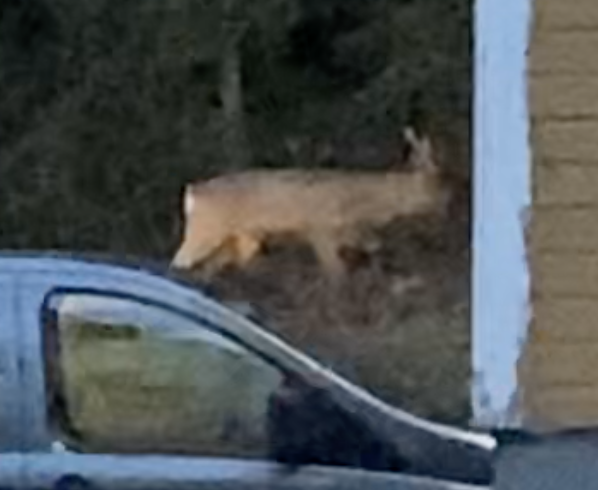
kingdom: Animalia
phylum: Chordata
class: Mammalia
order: Artiodactyla
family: Cervidae
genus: Capreolus
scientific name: Capreolus capreolus
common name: Western roe deer
